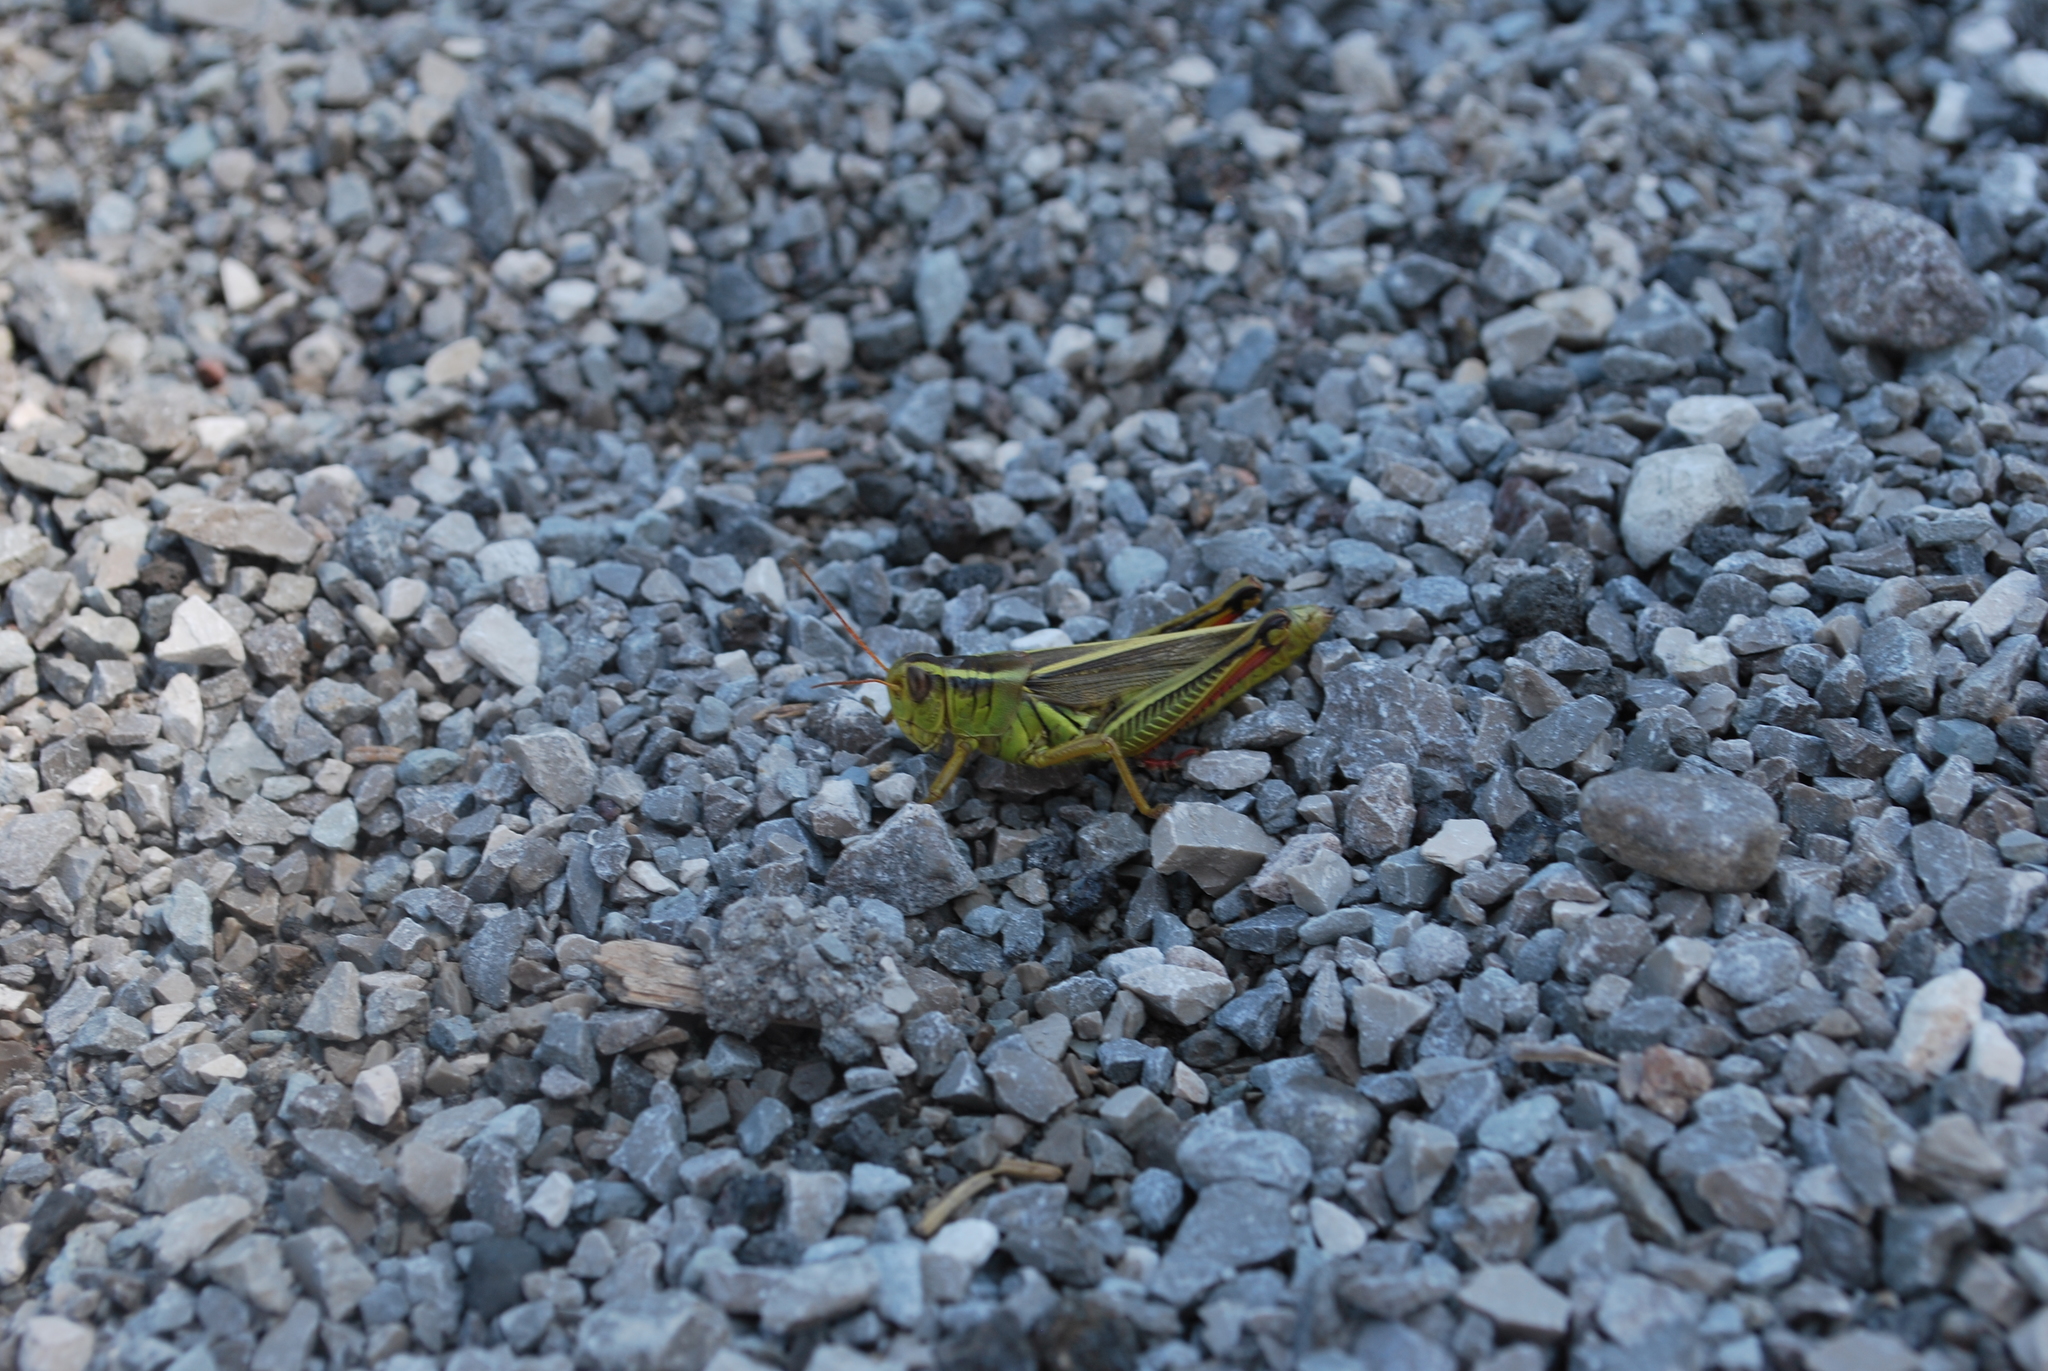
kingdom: Animalia
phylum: Arthropoda
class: Insecta
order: Orthoptera
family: Acrididae
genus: Melanoplus
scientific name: Melanoplus bivittatus
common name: Two-striped grasshopper
